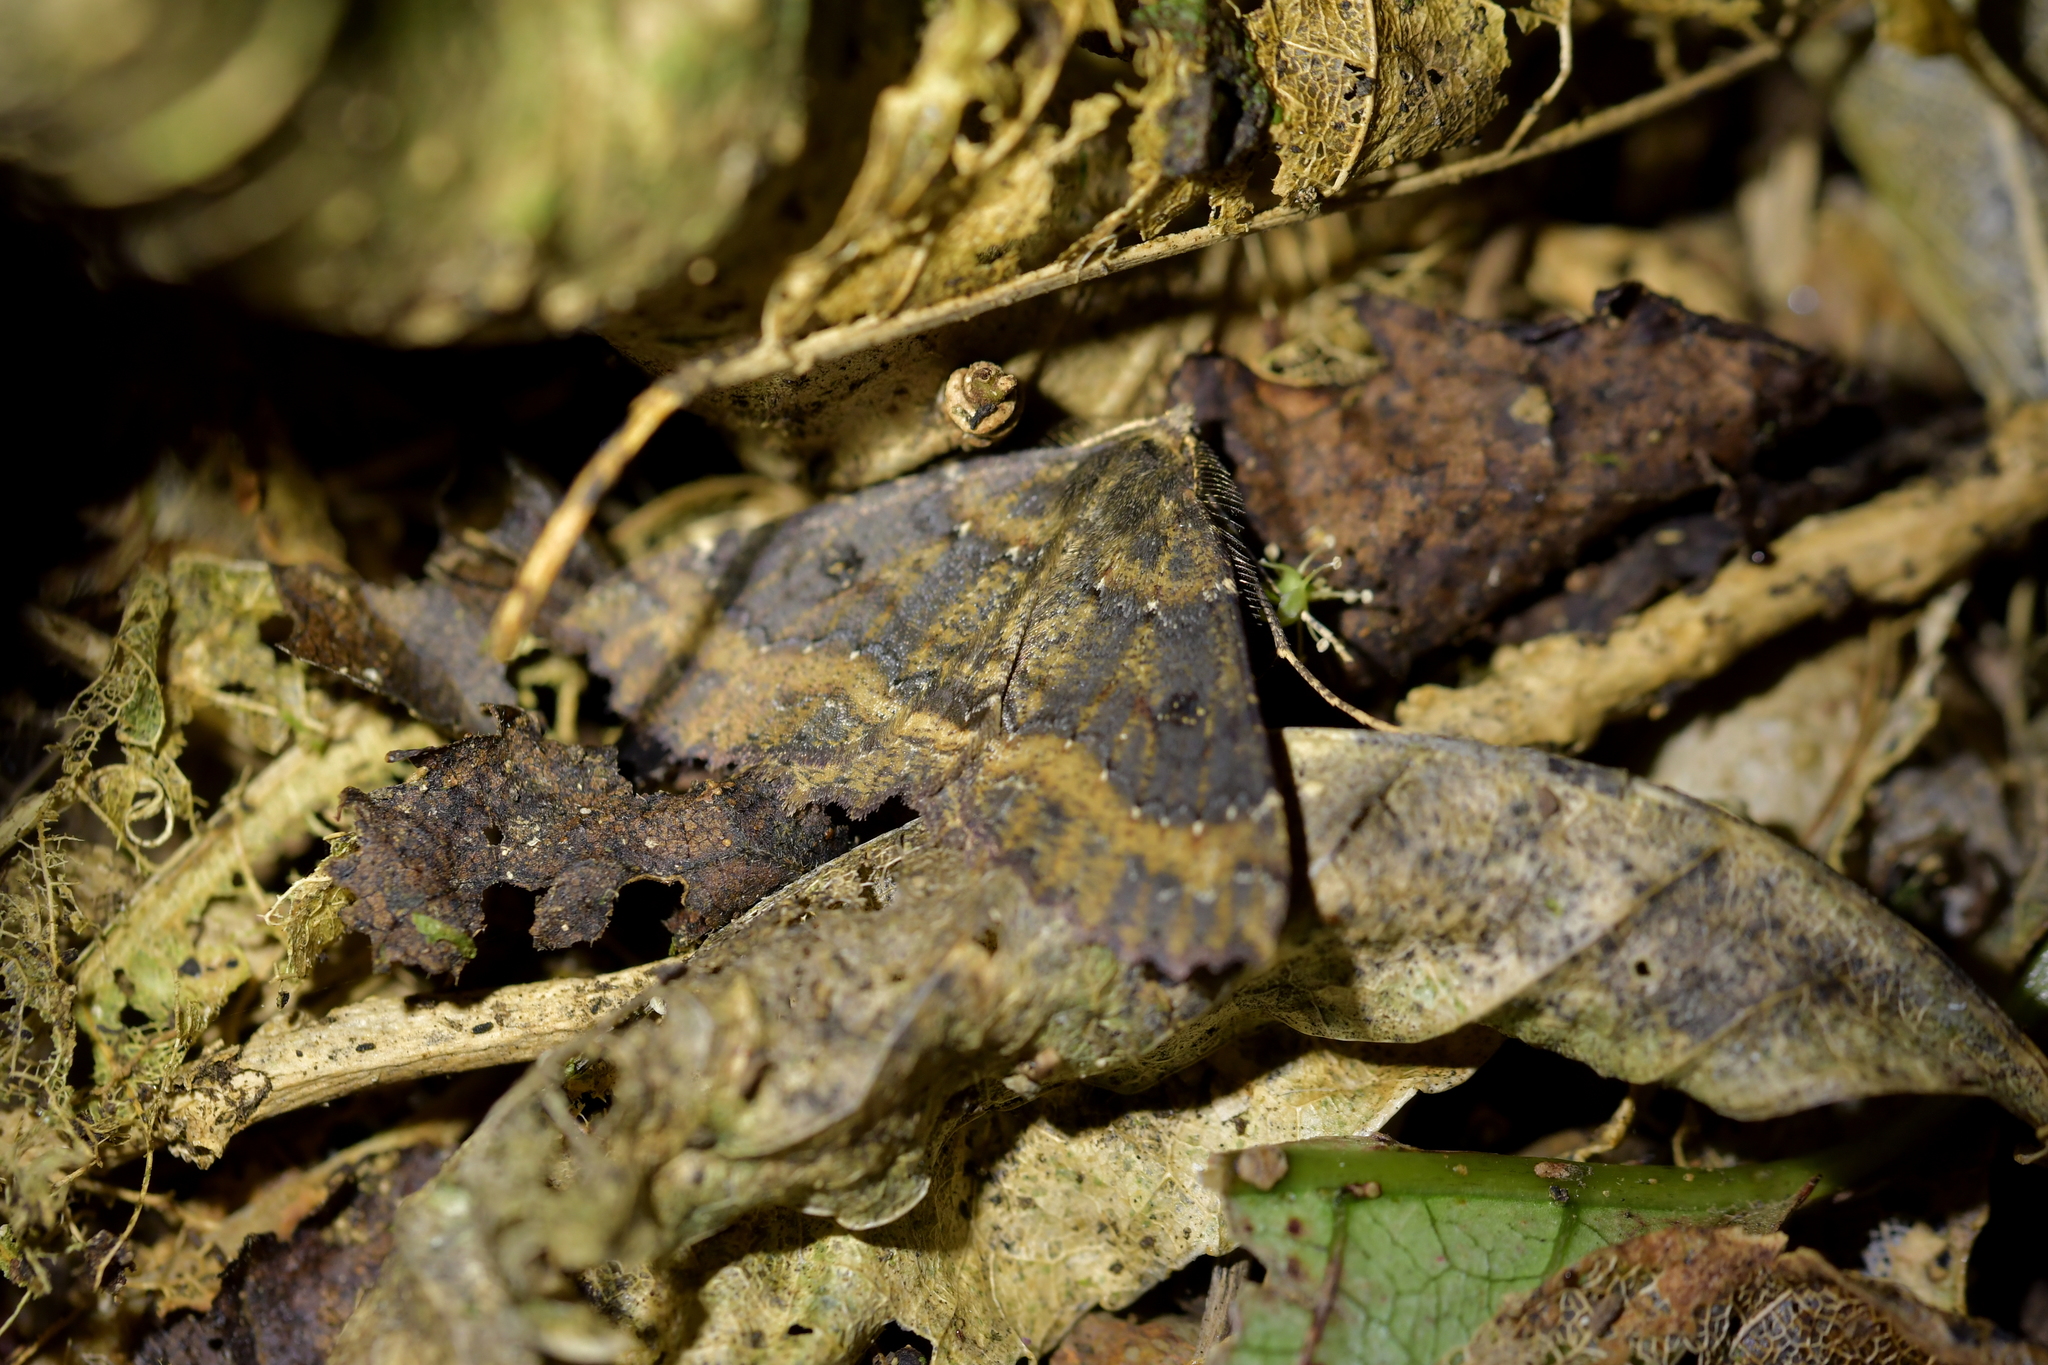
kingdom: Animalia
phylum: Arthropoda
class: Insecta
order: Lepidoptera
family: Geometridae
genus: Cleora
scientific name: Cleora scriptaria
